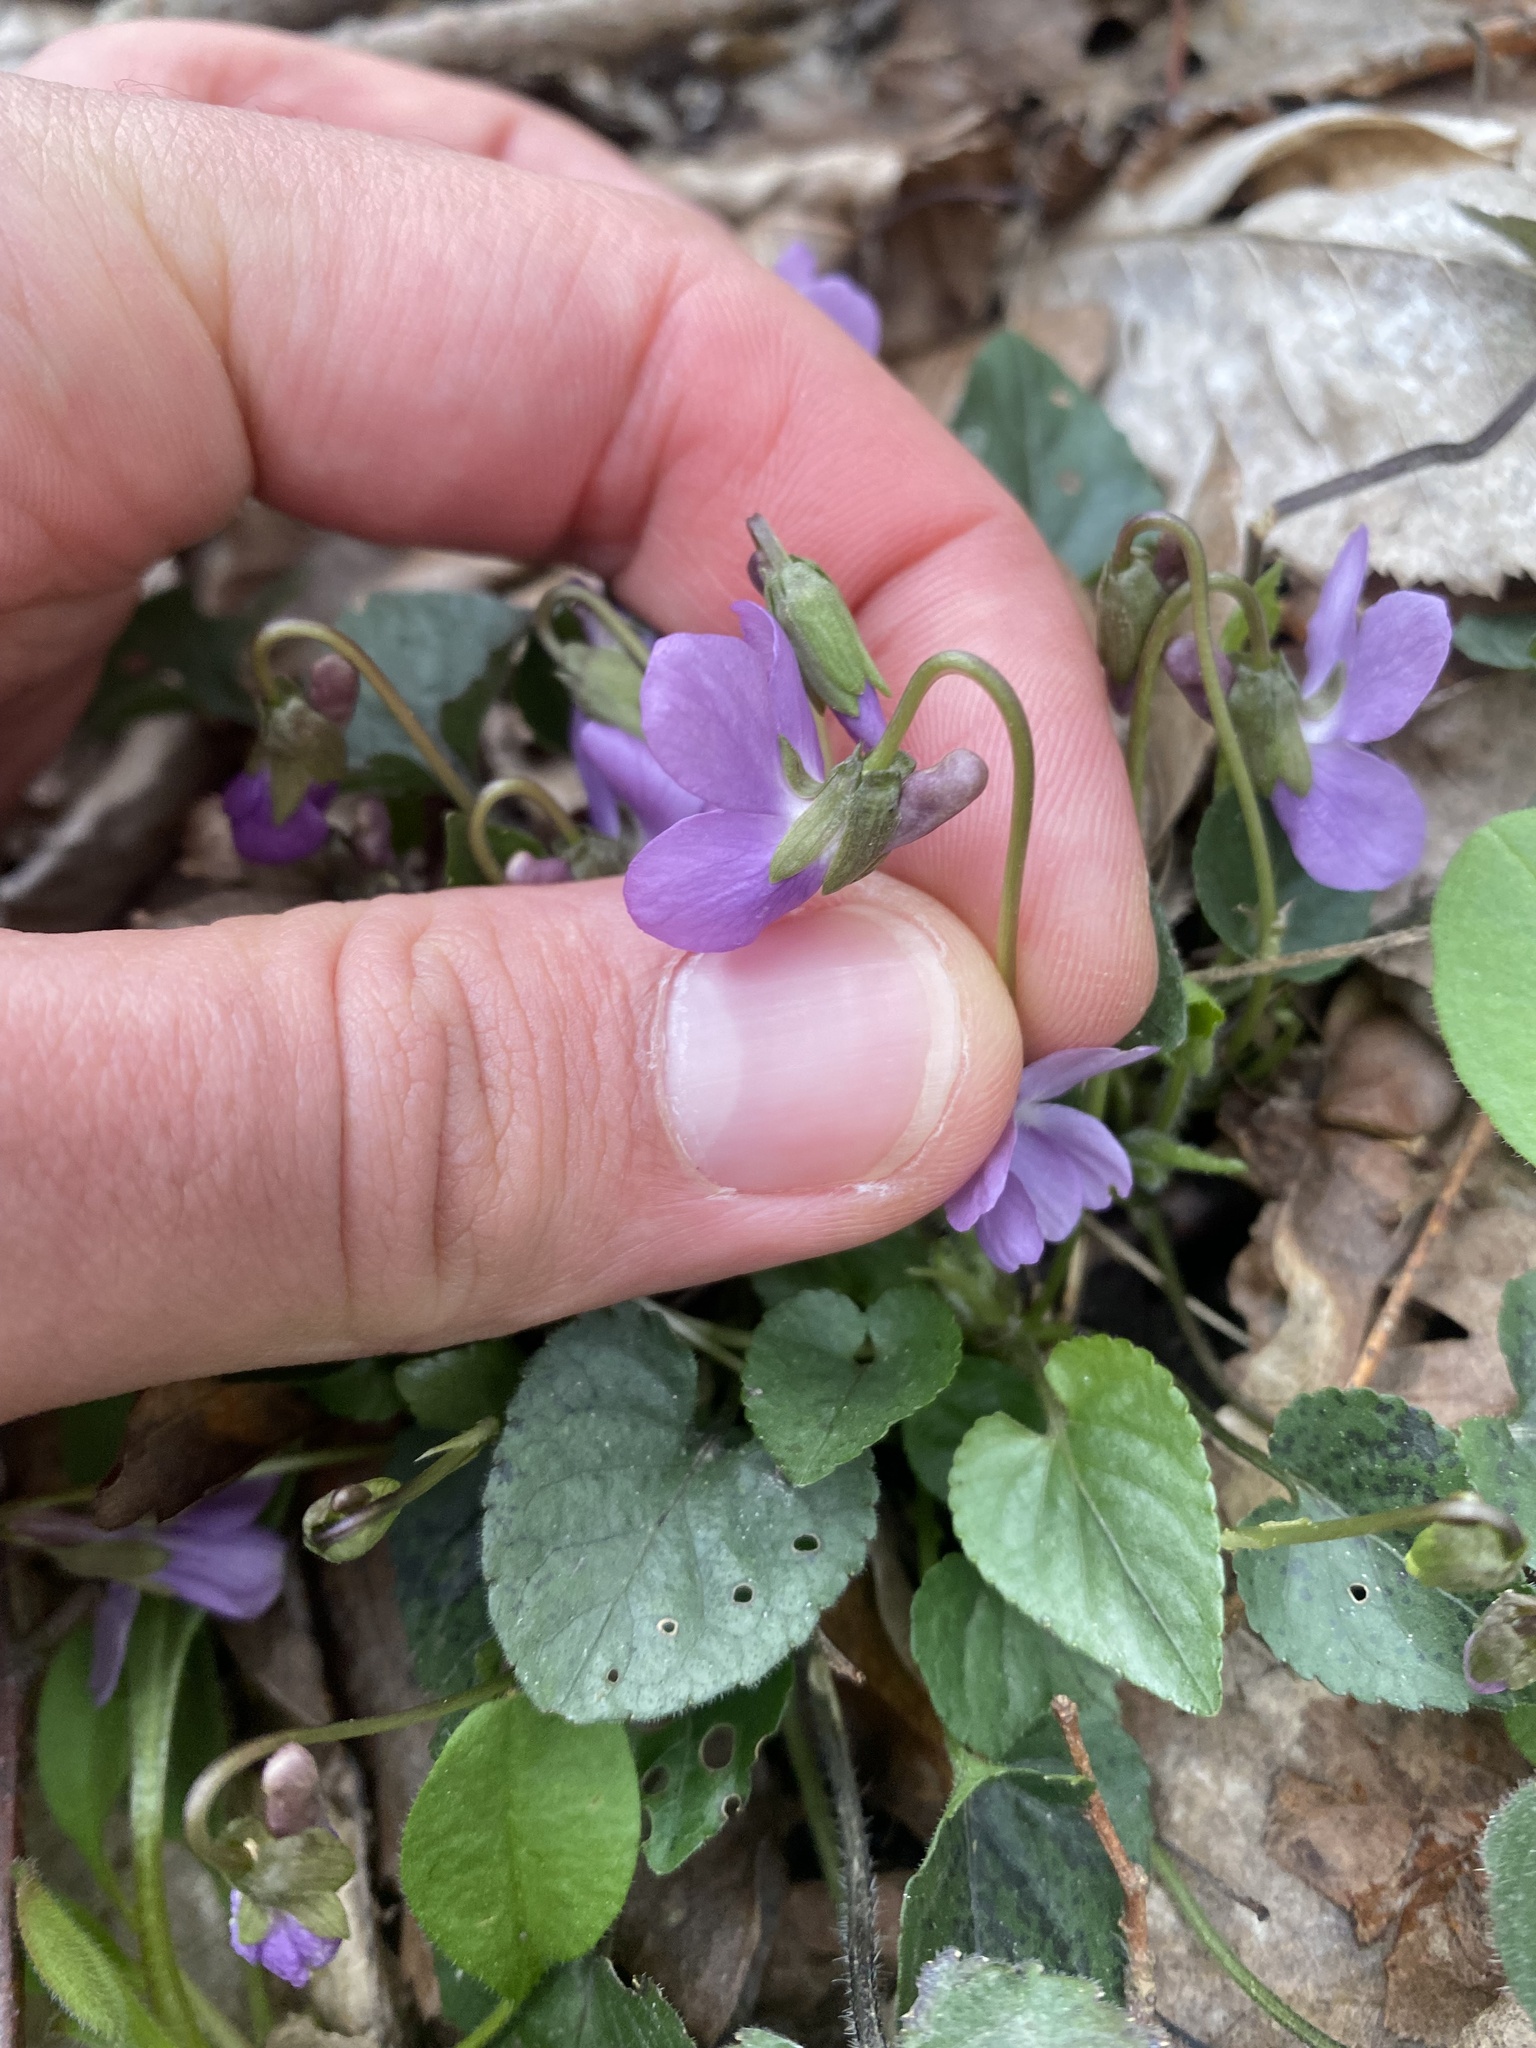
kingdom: Plantae
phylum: Tracheophyta
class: Magnoliopsida
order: Malpighiales
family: Violaceae
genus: Viola
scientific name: Viola alba
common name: White violet
